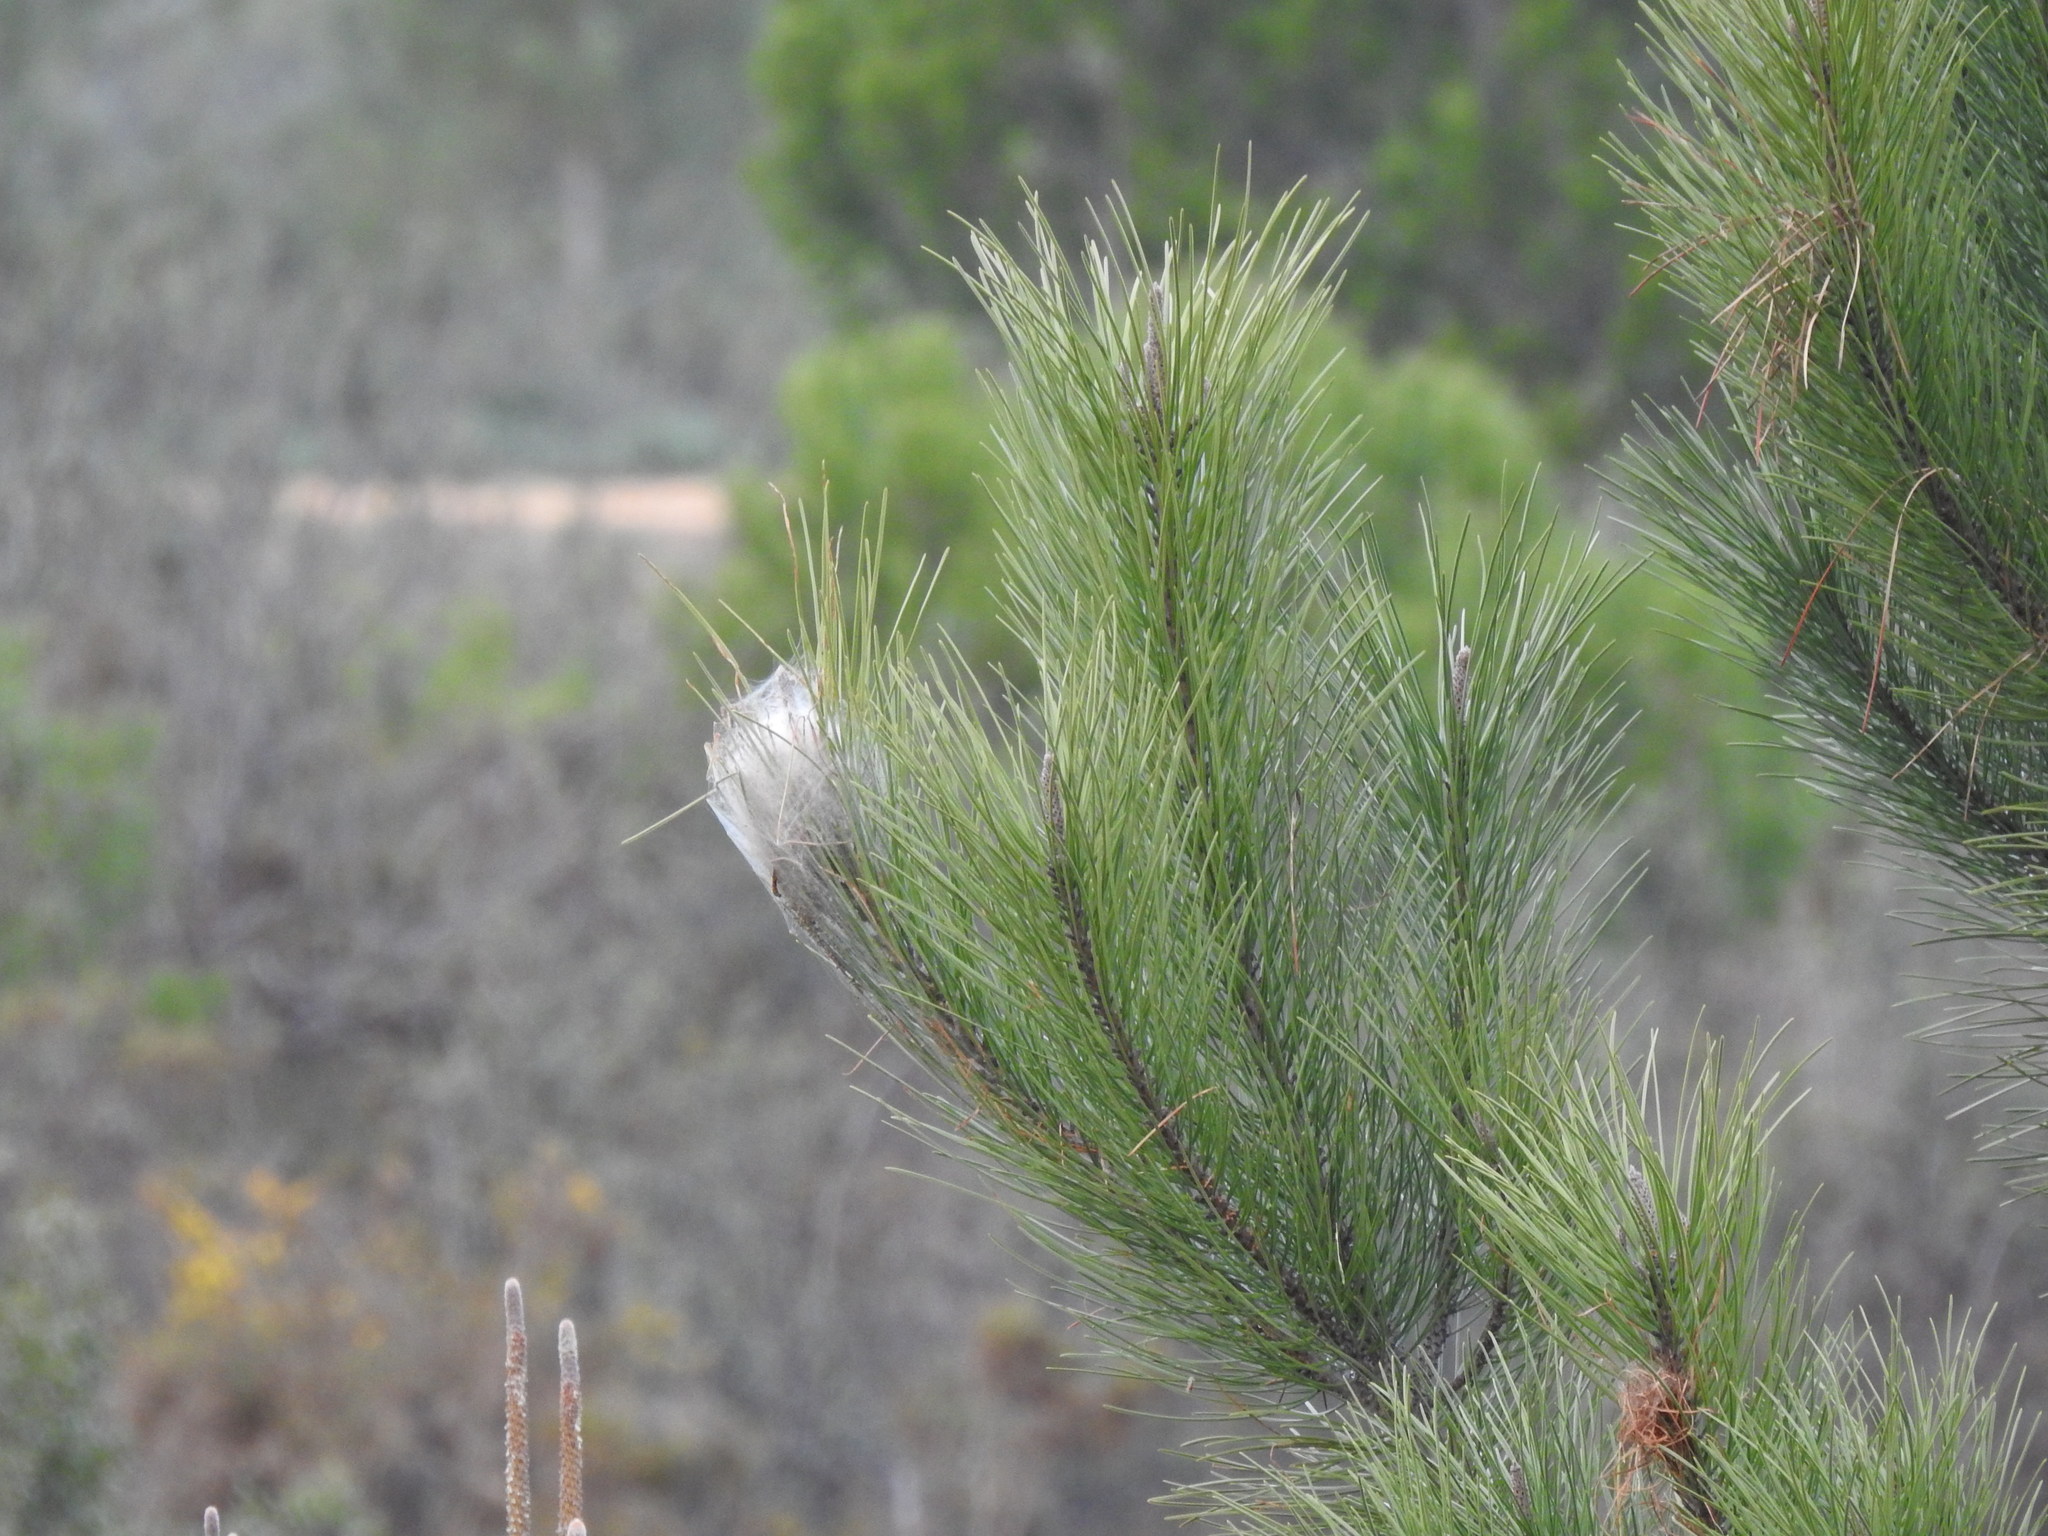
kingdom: Animalia
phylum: Arthropoda
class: Insecta
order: Lepidoptera
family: Notodontidae
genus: Thaumetopoea
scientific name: Thaumetopoea pityocampa
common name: Pine processionary
